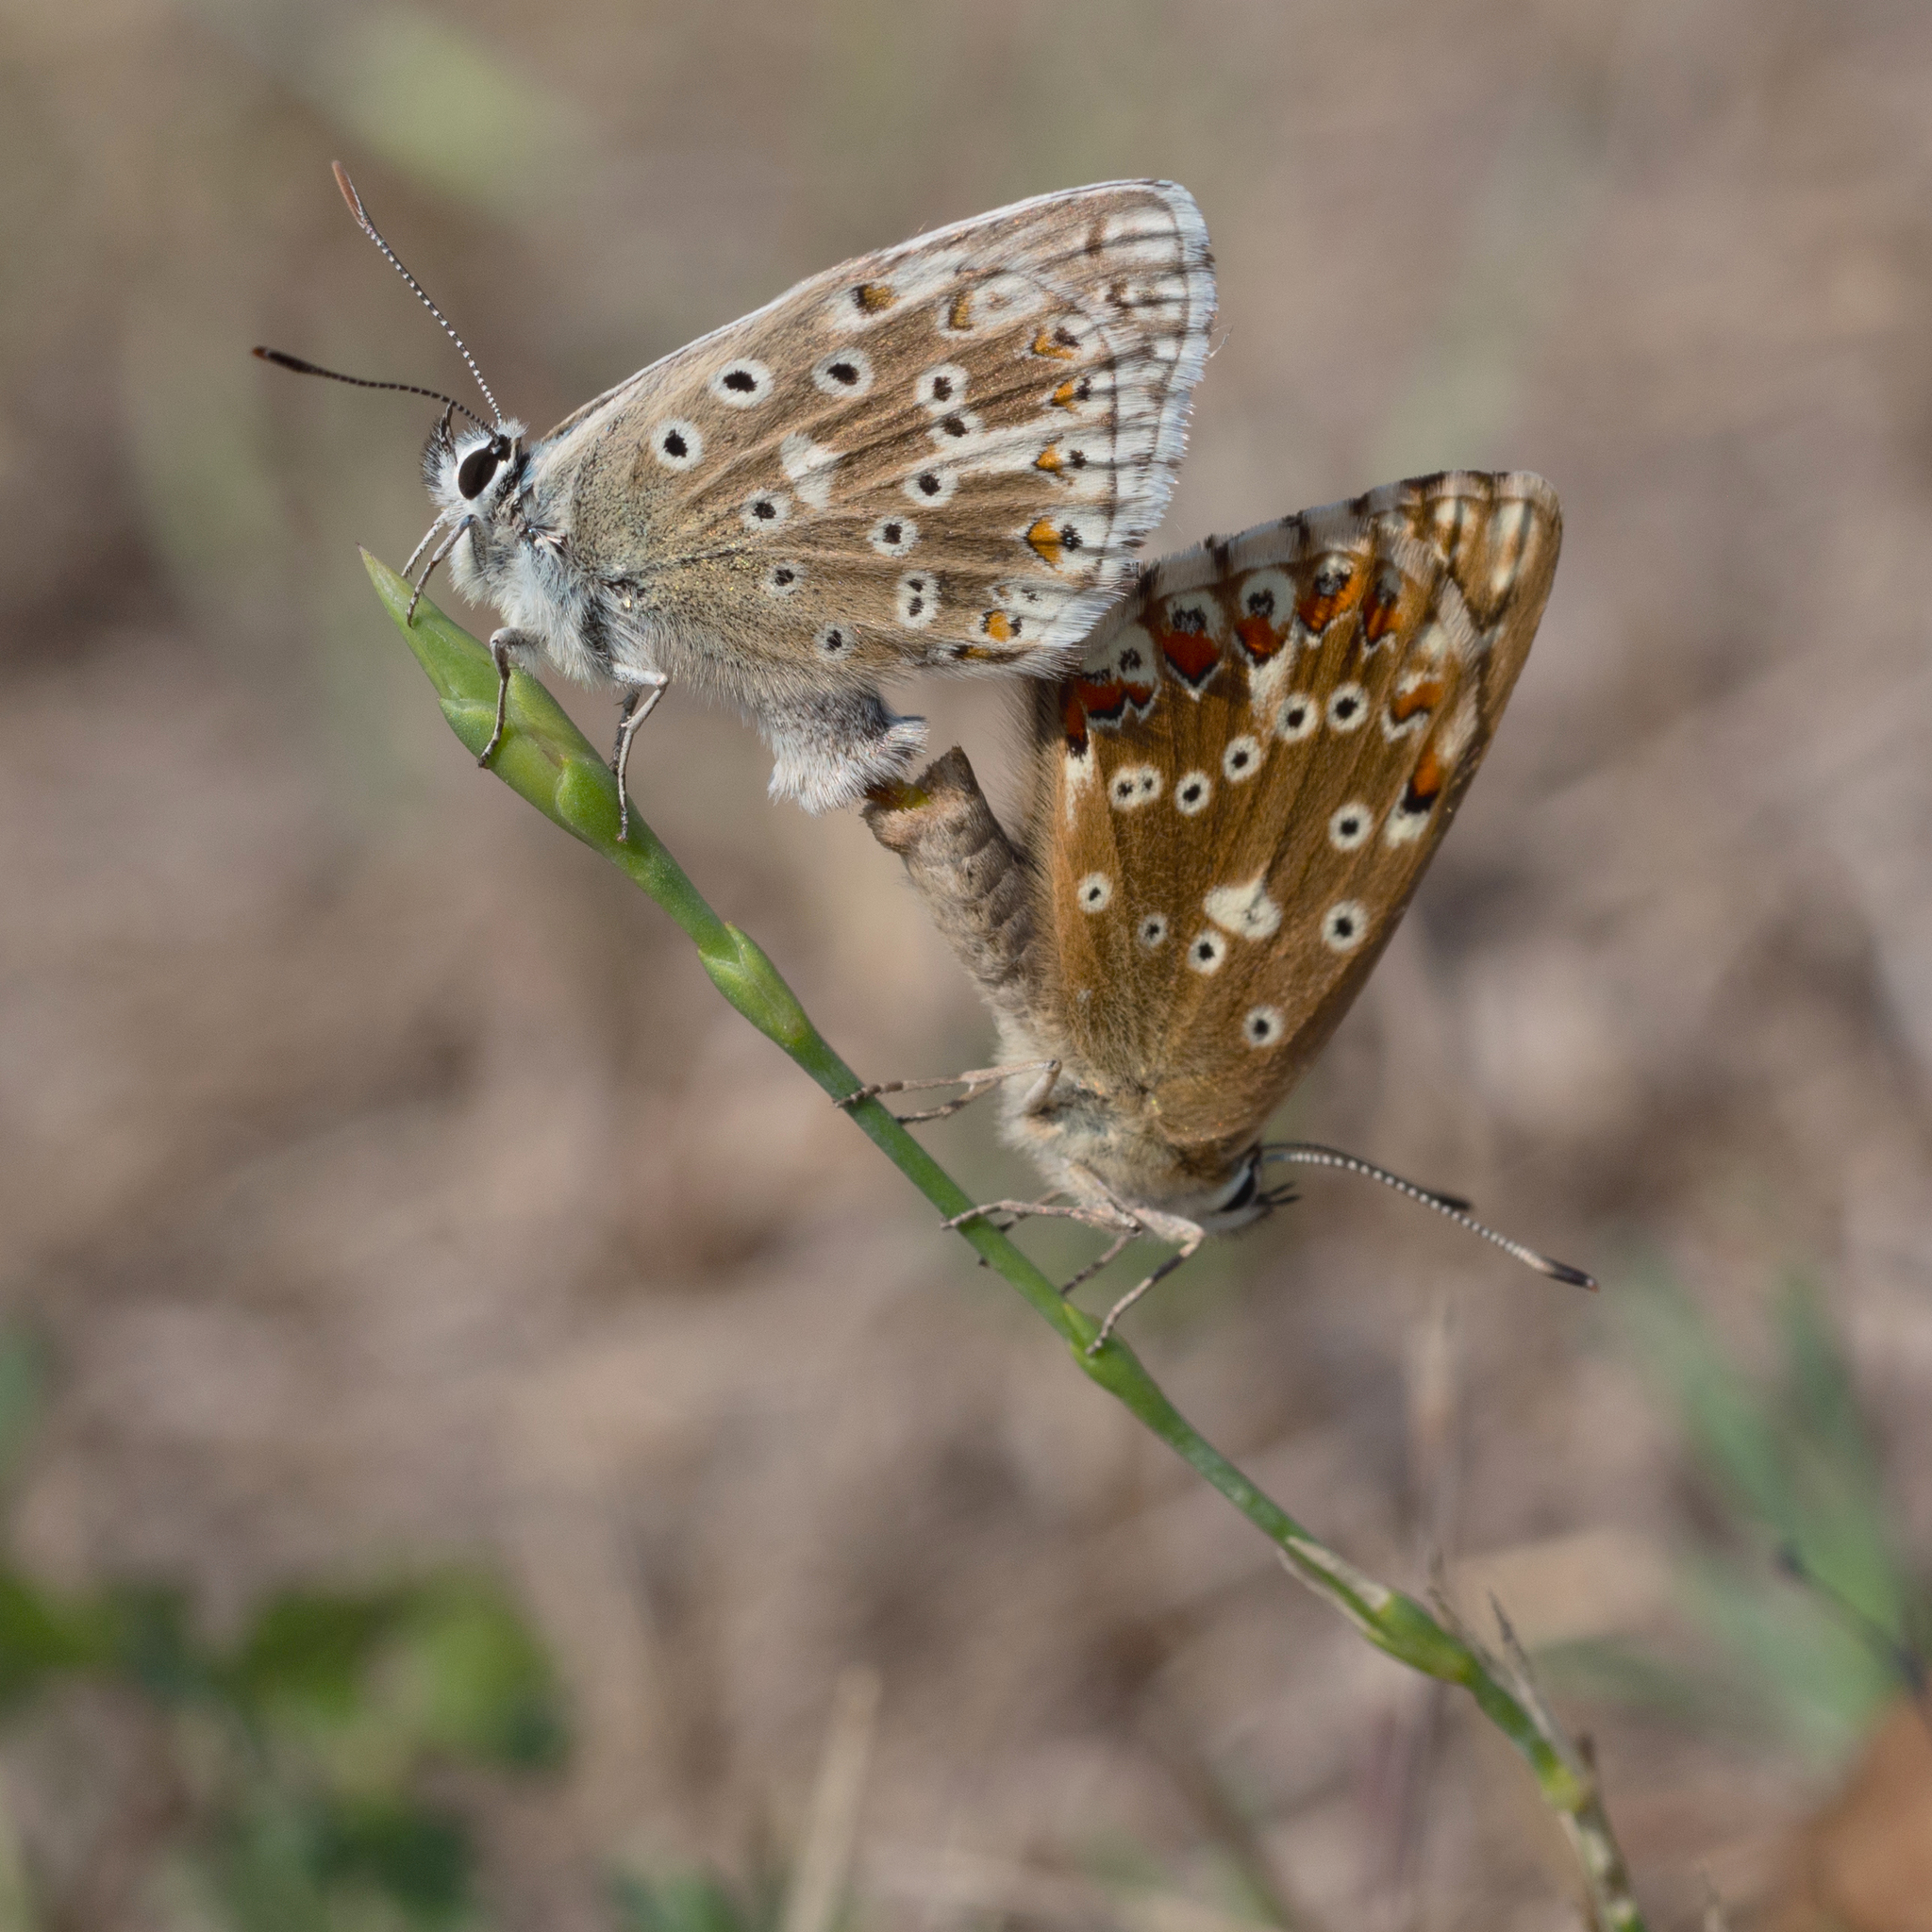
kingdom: Animalia
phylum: Arthropoda
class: Insecta
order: Lepidoptera
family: Lycaenidae
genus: Lysandra
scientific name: Lysandra coridon
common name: Chalkhill blue
